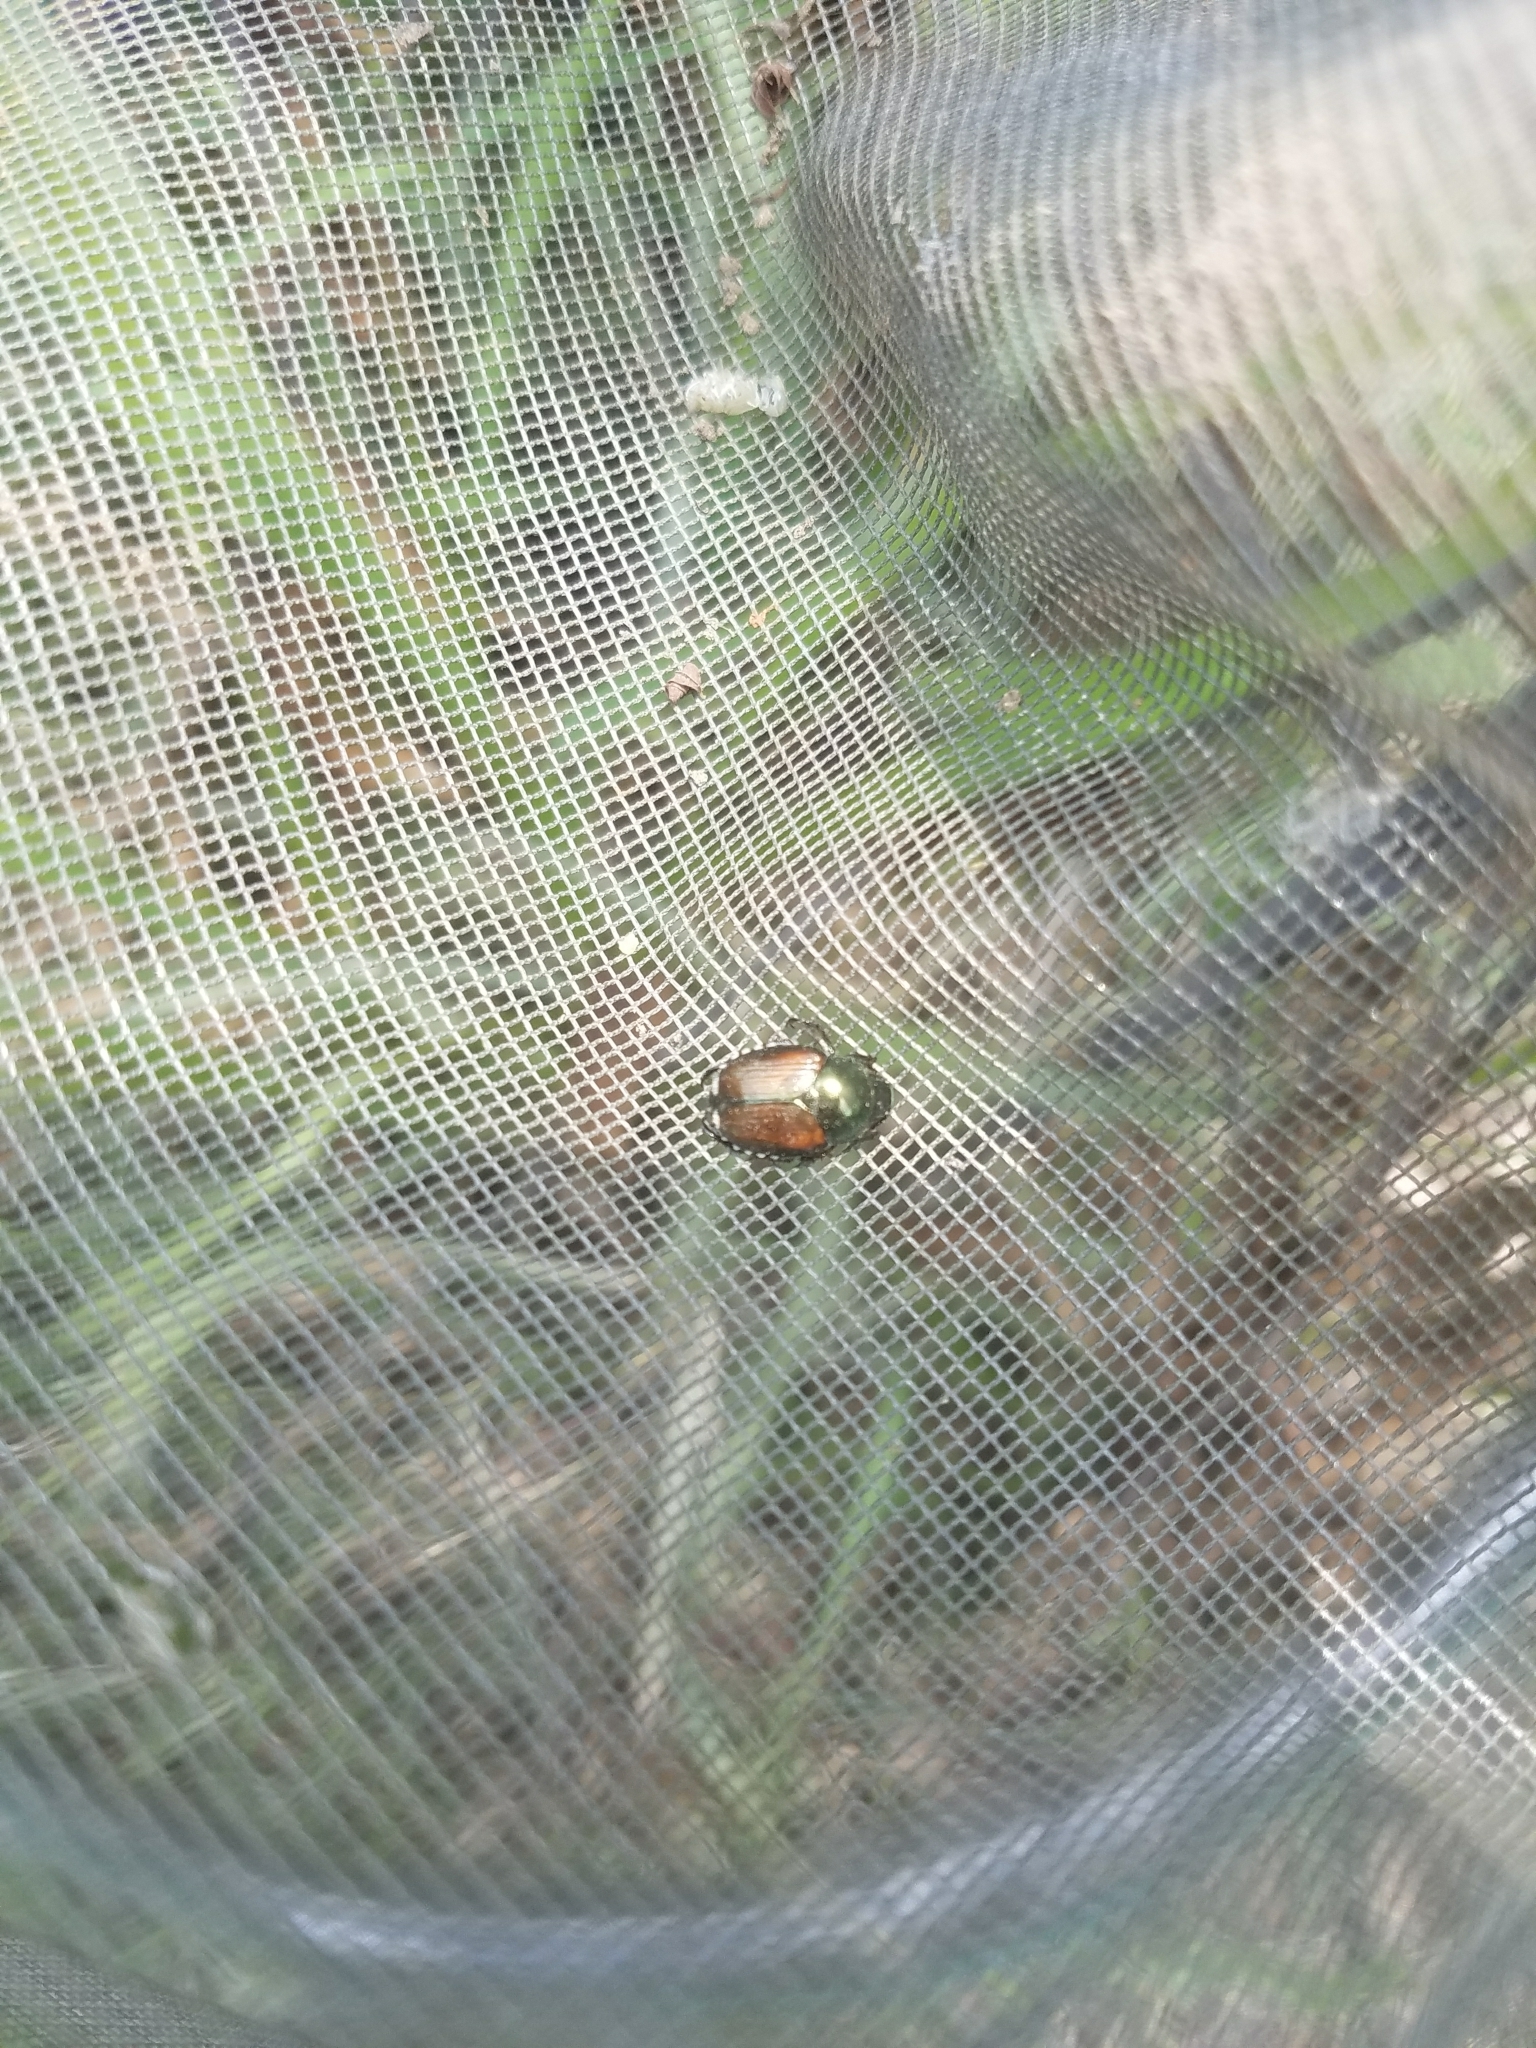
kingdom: Animalia
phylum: Arthropoda
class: Insecta
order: Coleoptera
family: Scarabaeidae
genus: Popillia
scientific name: Popillia japonica
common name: Japanese beetle
